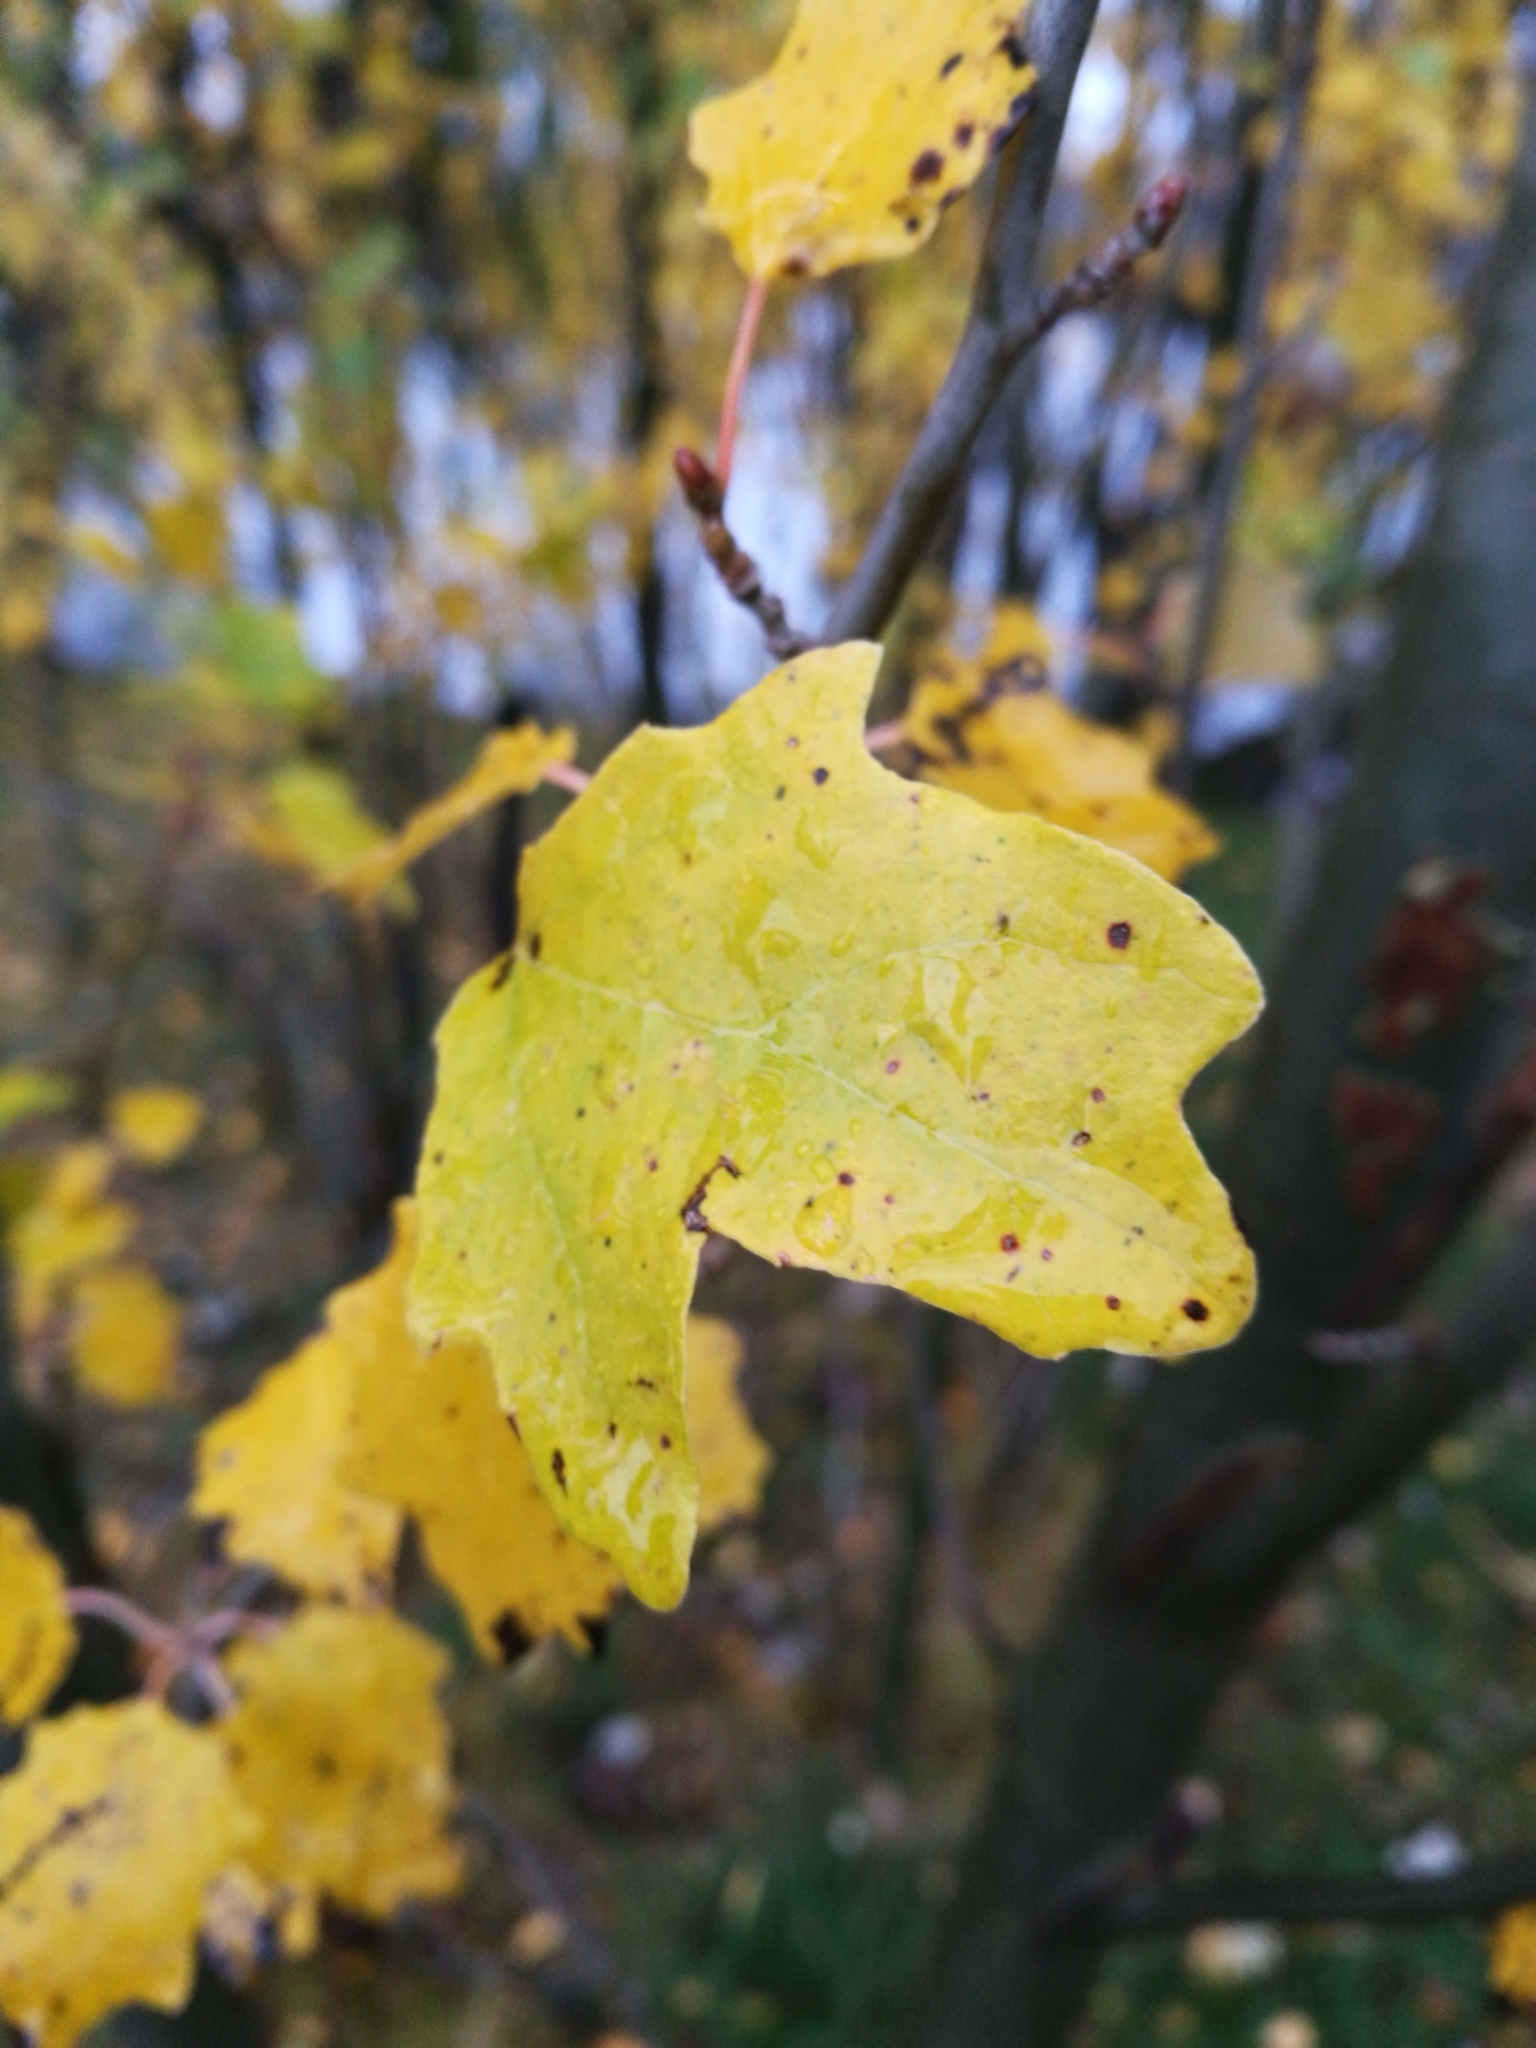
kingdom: Plantae
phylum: Tracheophyta
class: Magnoliopsida
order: Malpighiales
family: Salicaceae
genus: Populus
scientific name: Populus nigra
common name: Black poplar
